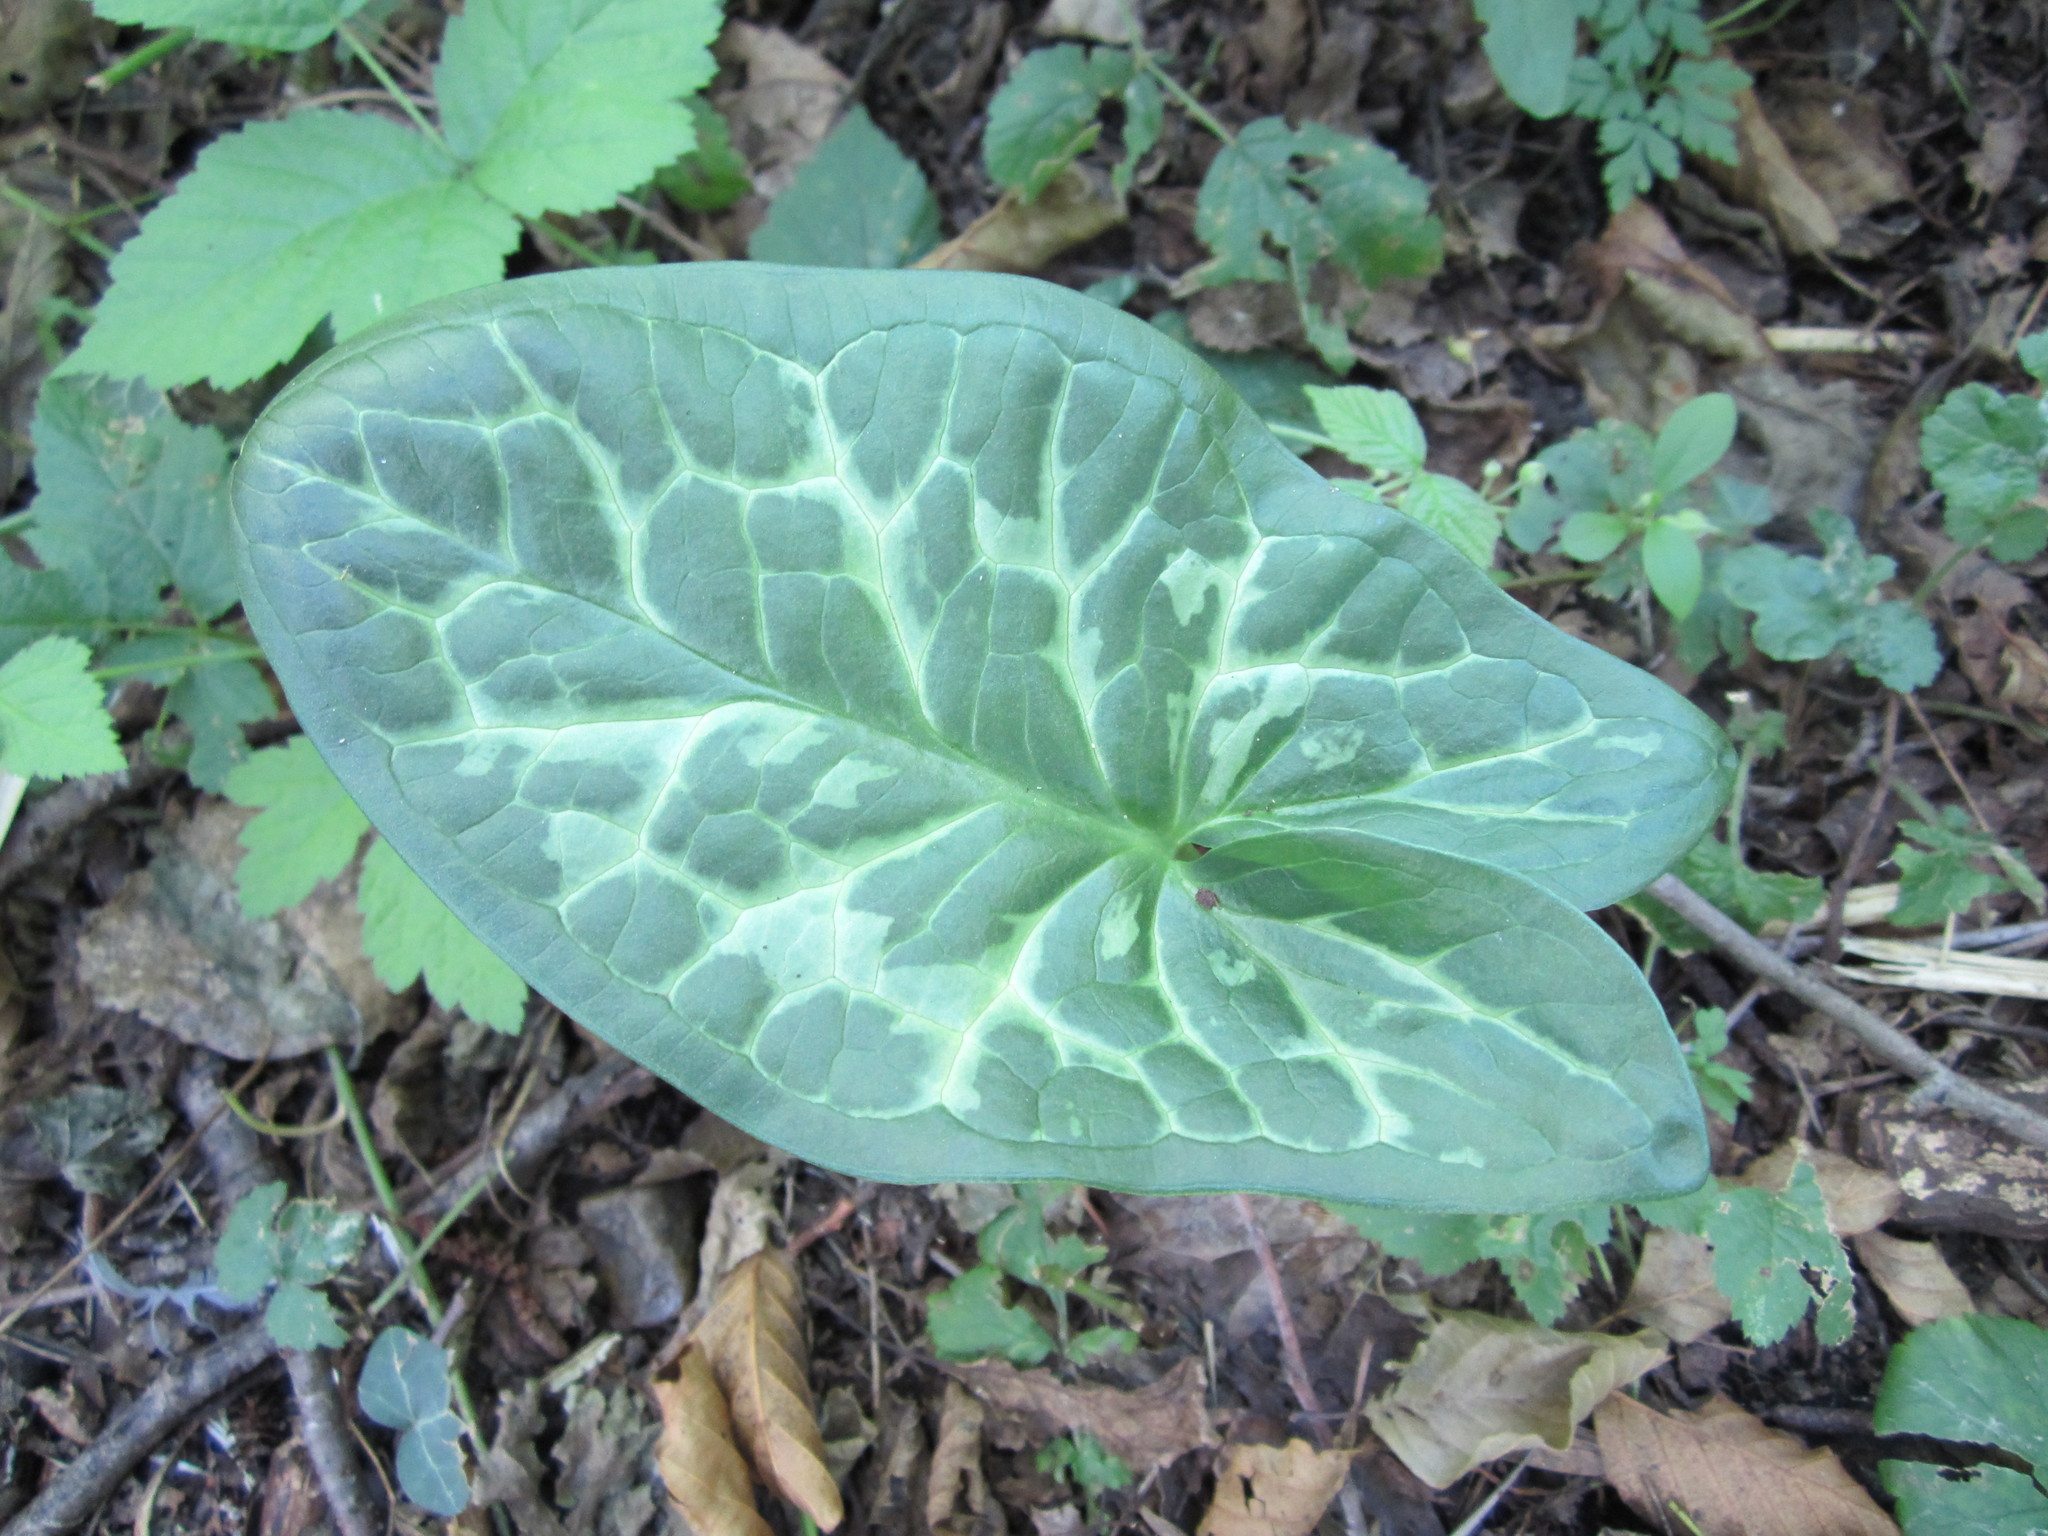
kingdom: Plantae
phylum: Tracheophyta
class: Liliopsida
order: Alismatales
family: Araceae
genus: Arum
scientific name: Arum italicum
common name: Italian lords-and-ladies
